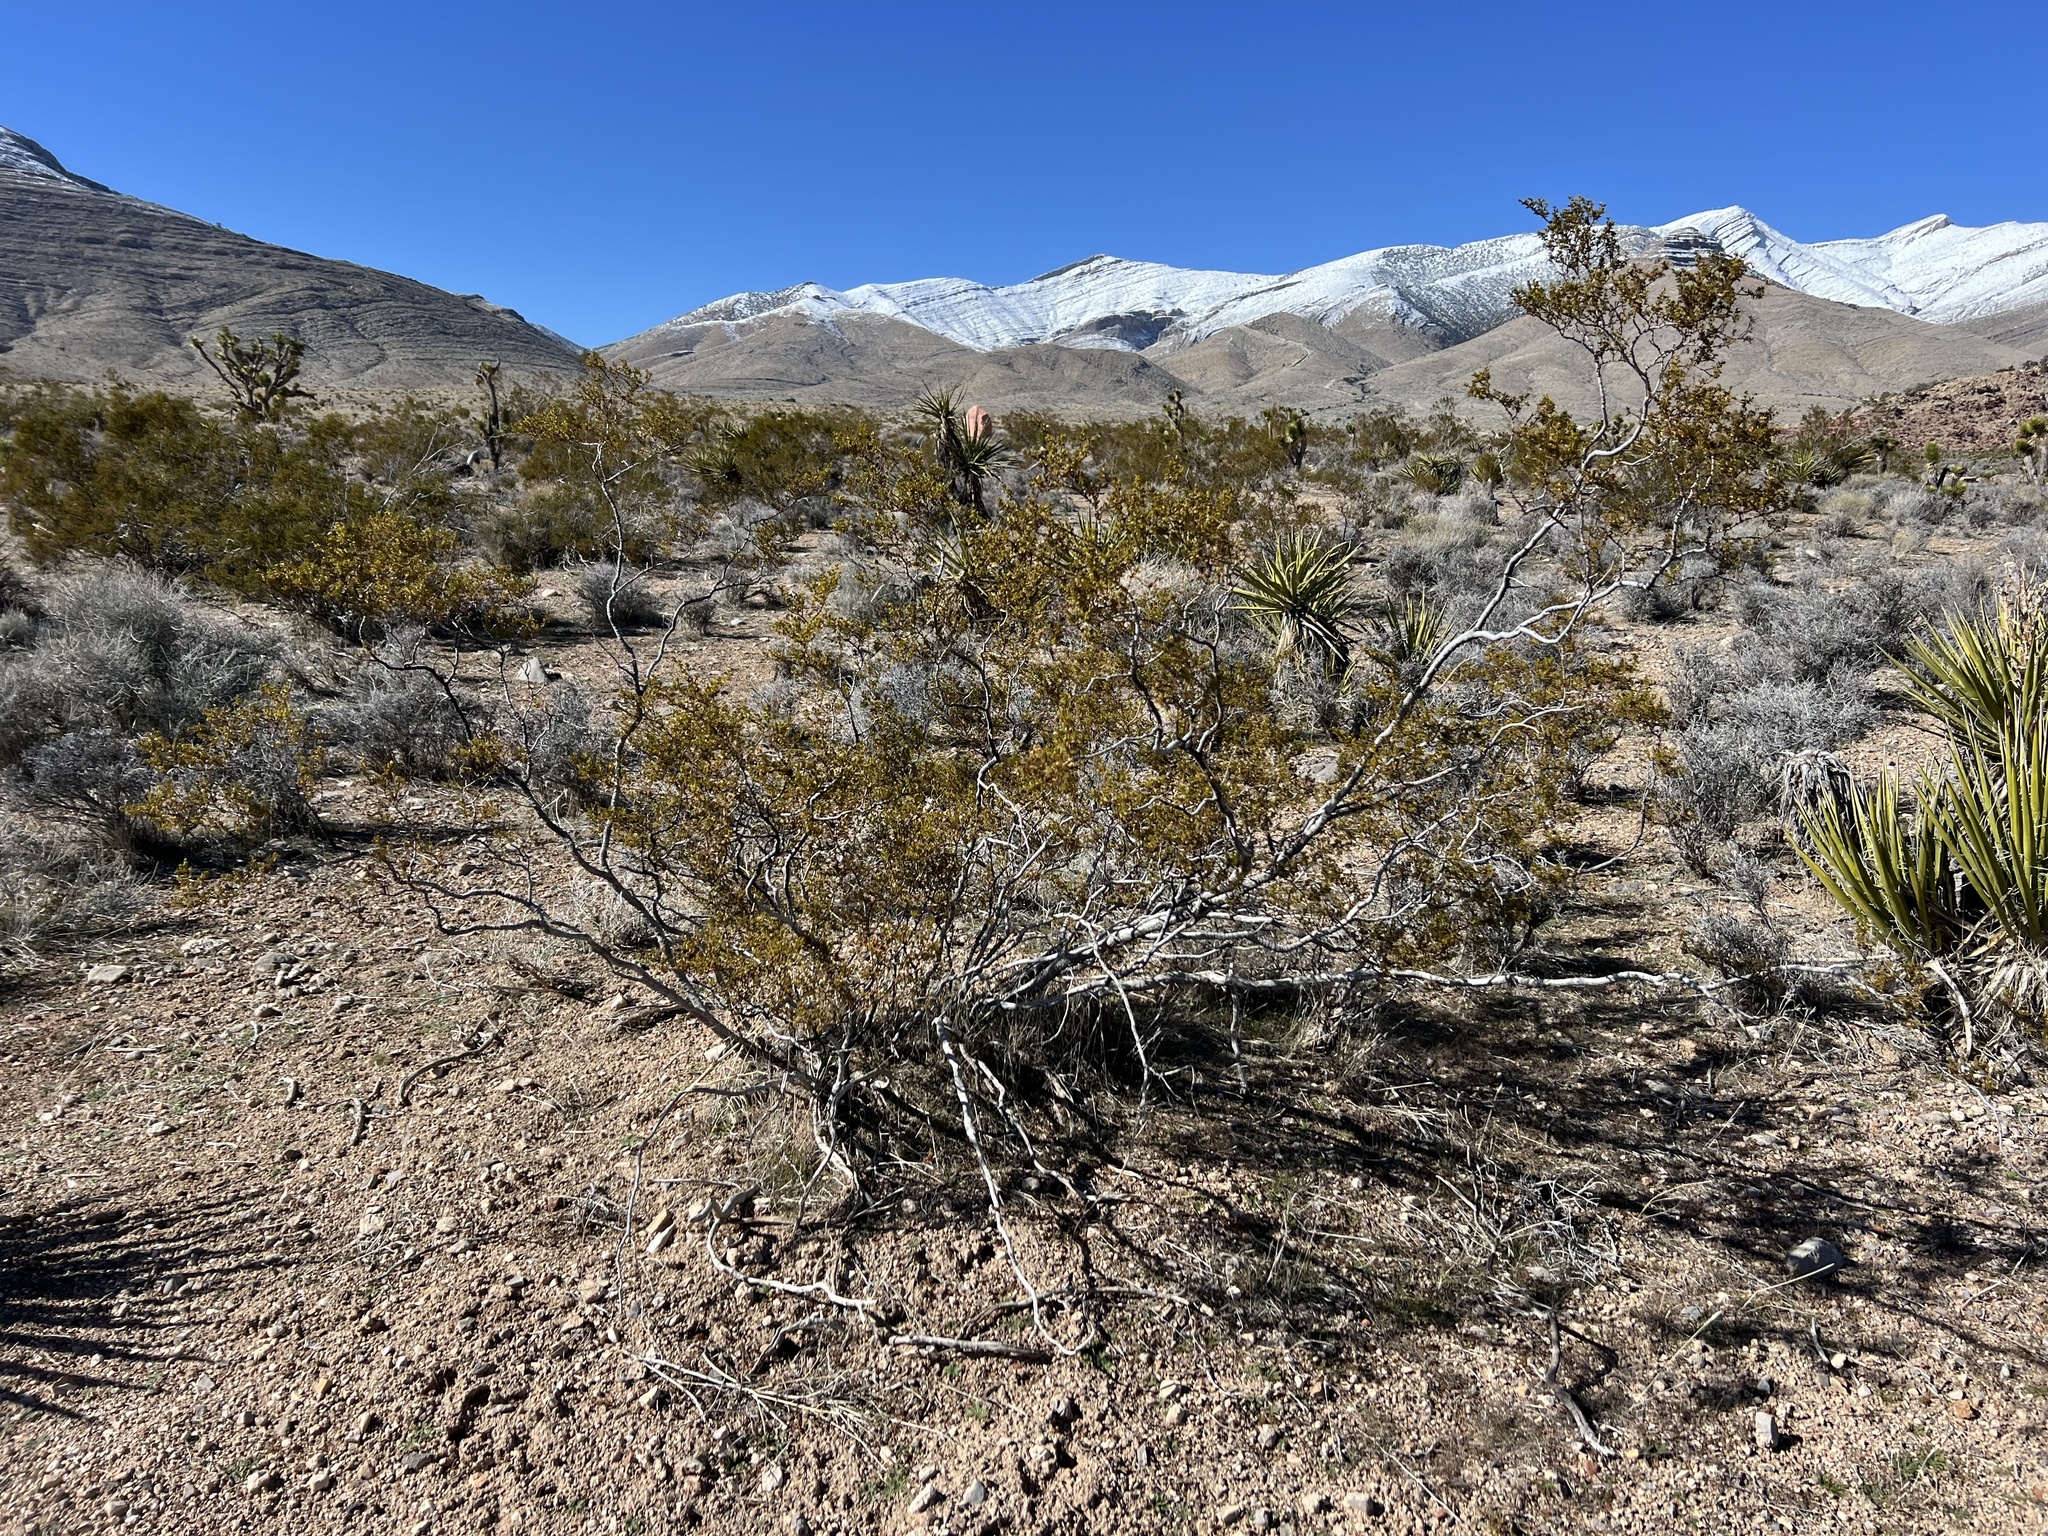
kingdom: Plantae
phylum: Tracheophyta
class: Magnoliopsida
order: Zygophyllales
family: Zygophyllaceae
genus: Larrea
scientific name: Larrea tridentata
